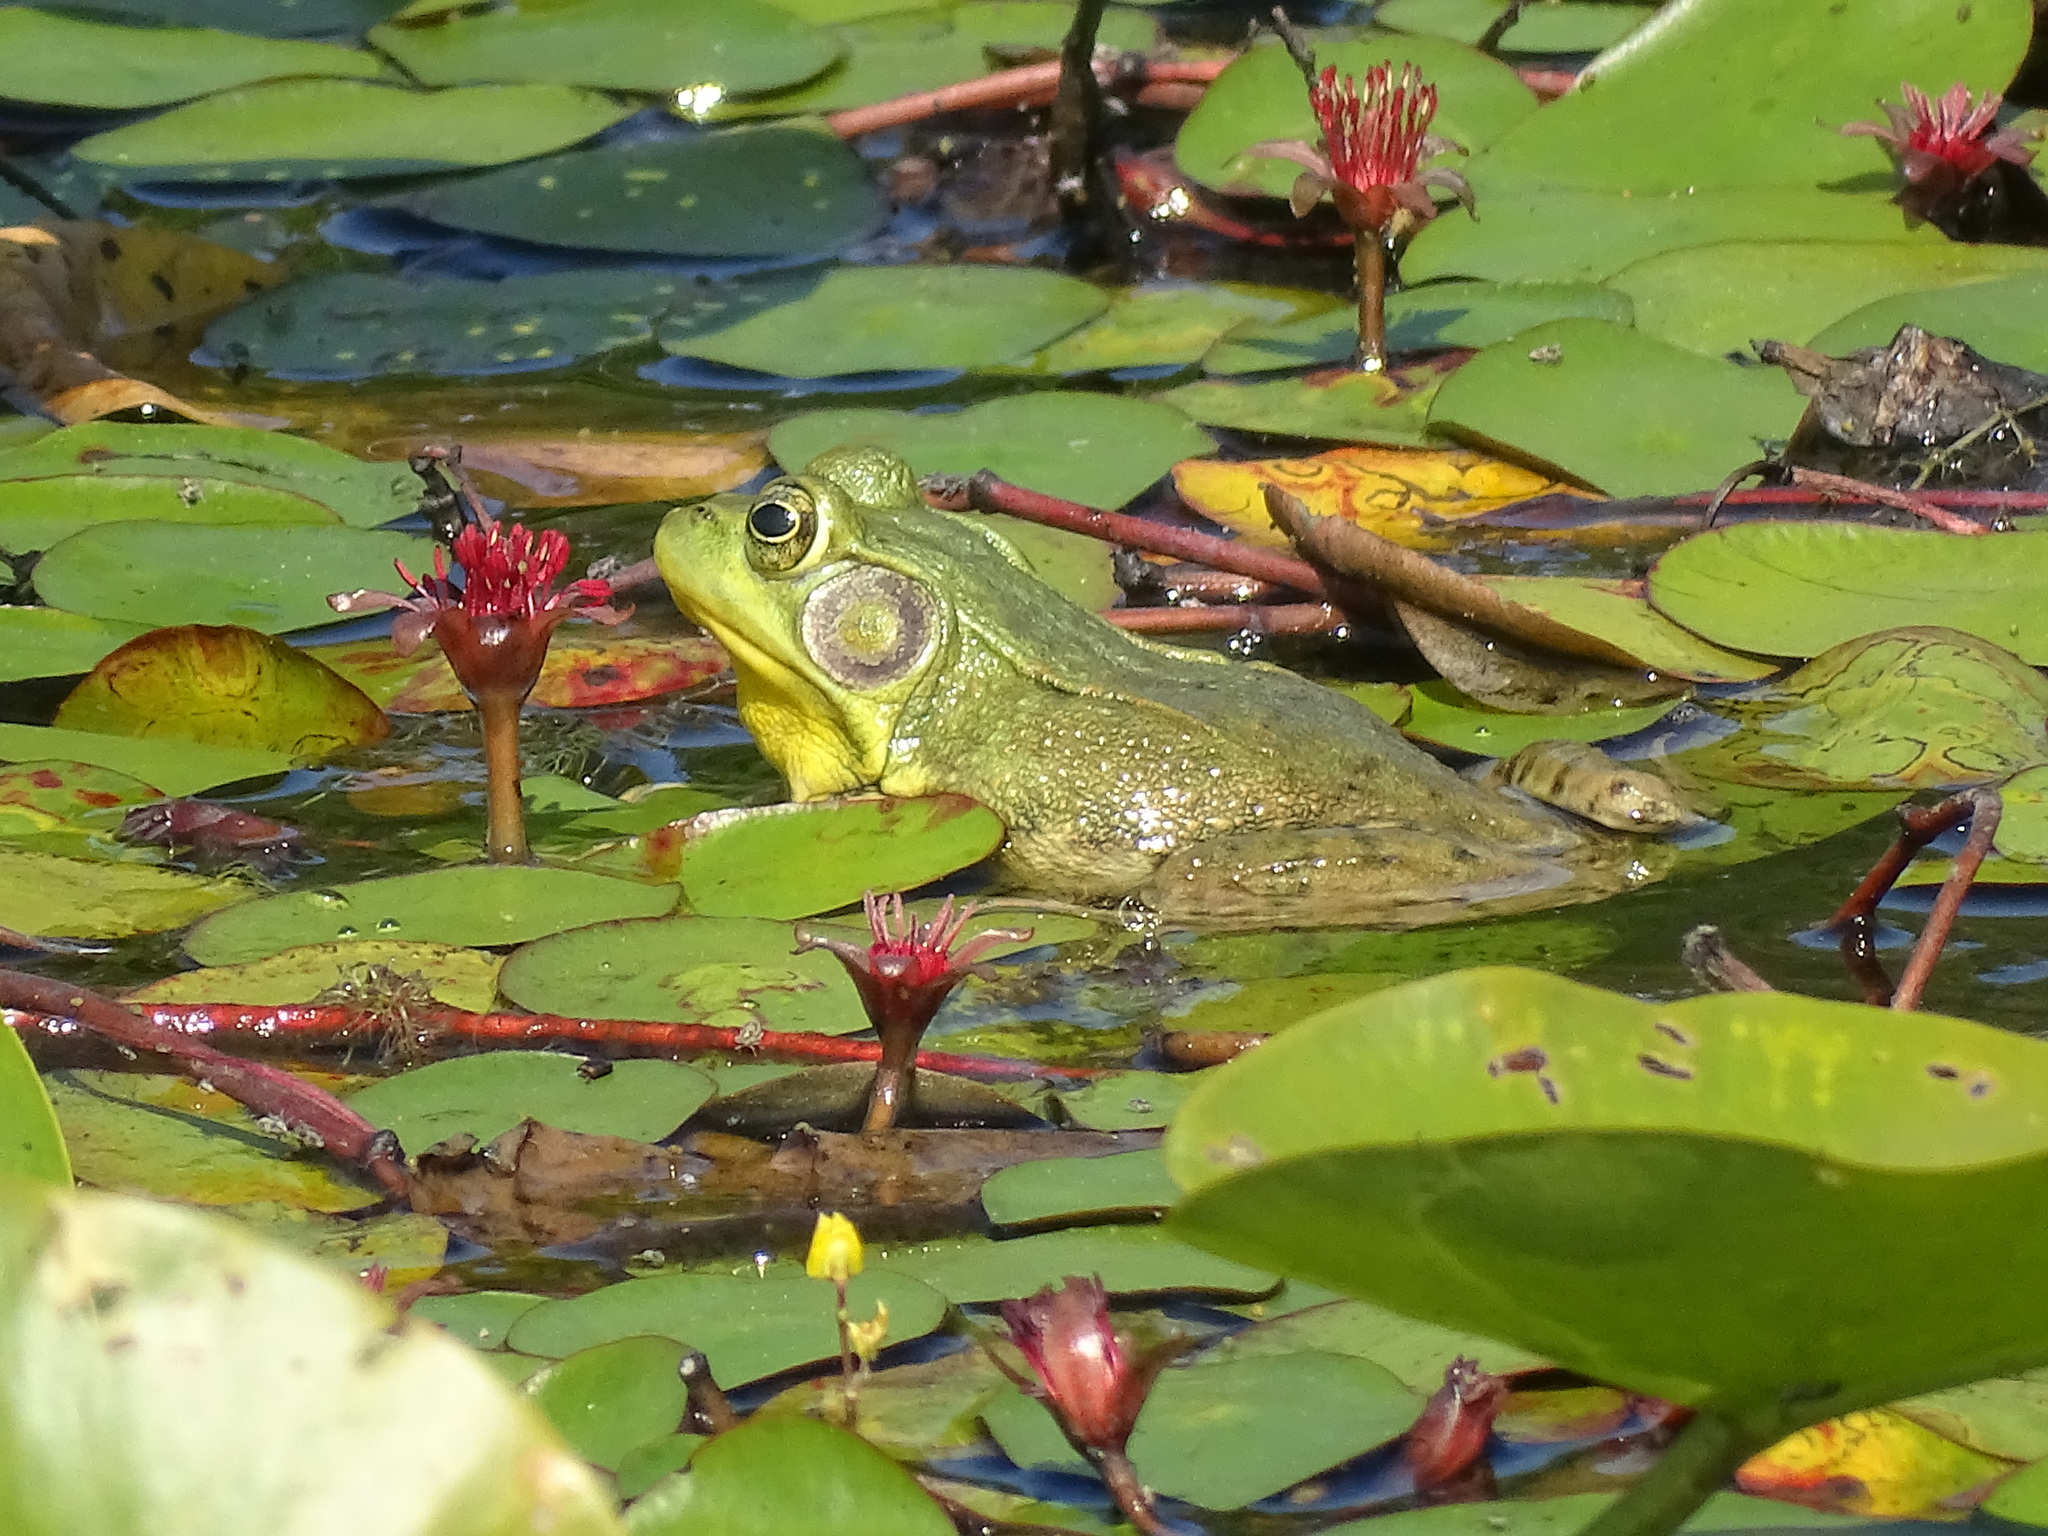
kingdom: Animalia
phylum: Chordata
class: Amphibia
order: Anura
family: Ranidae
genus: Lithobates
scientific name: Lithobates clamitans
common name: Green frog
